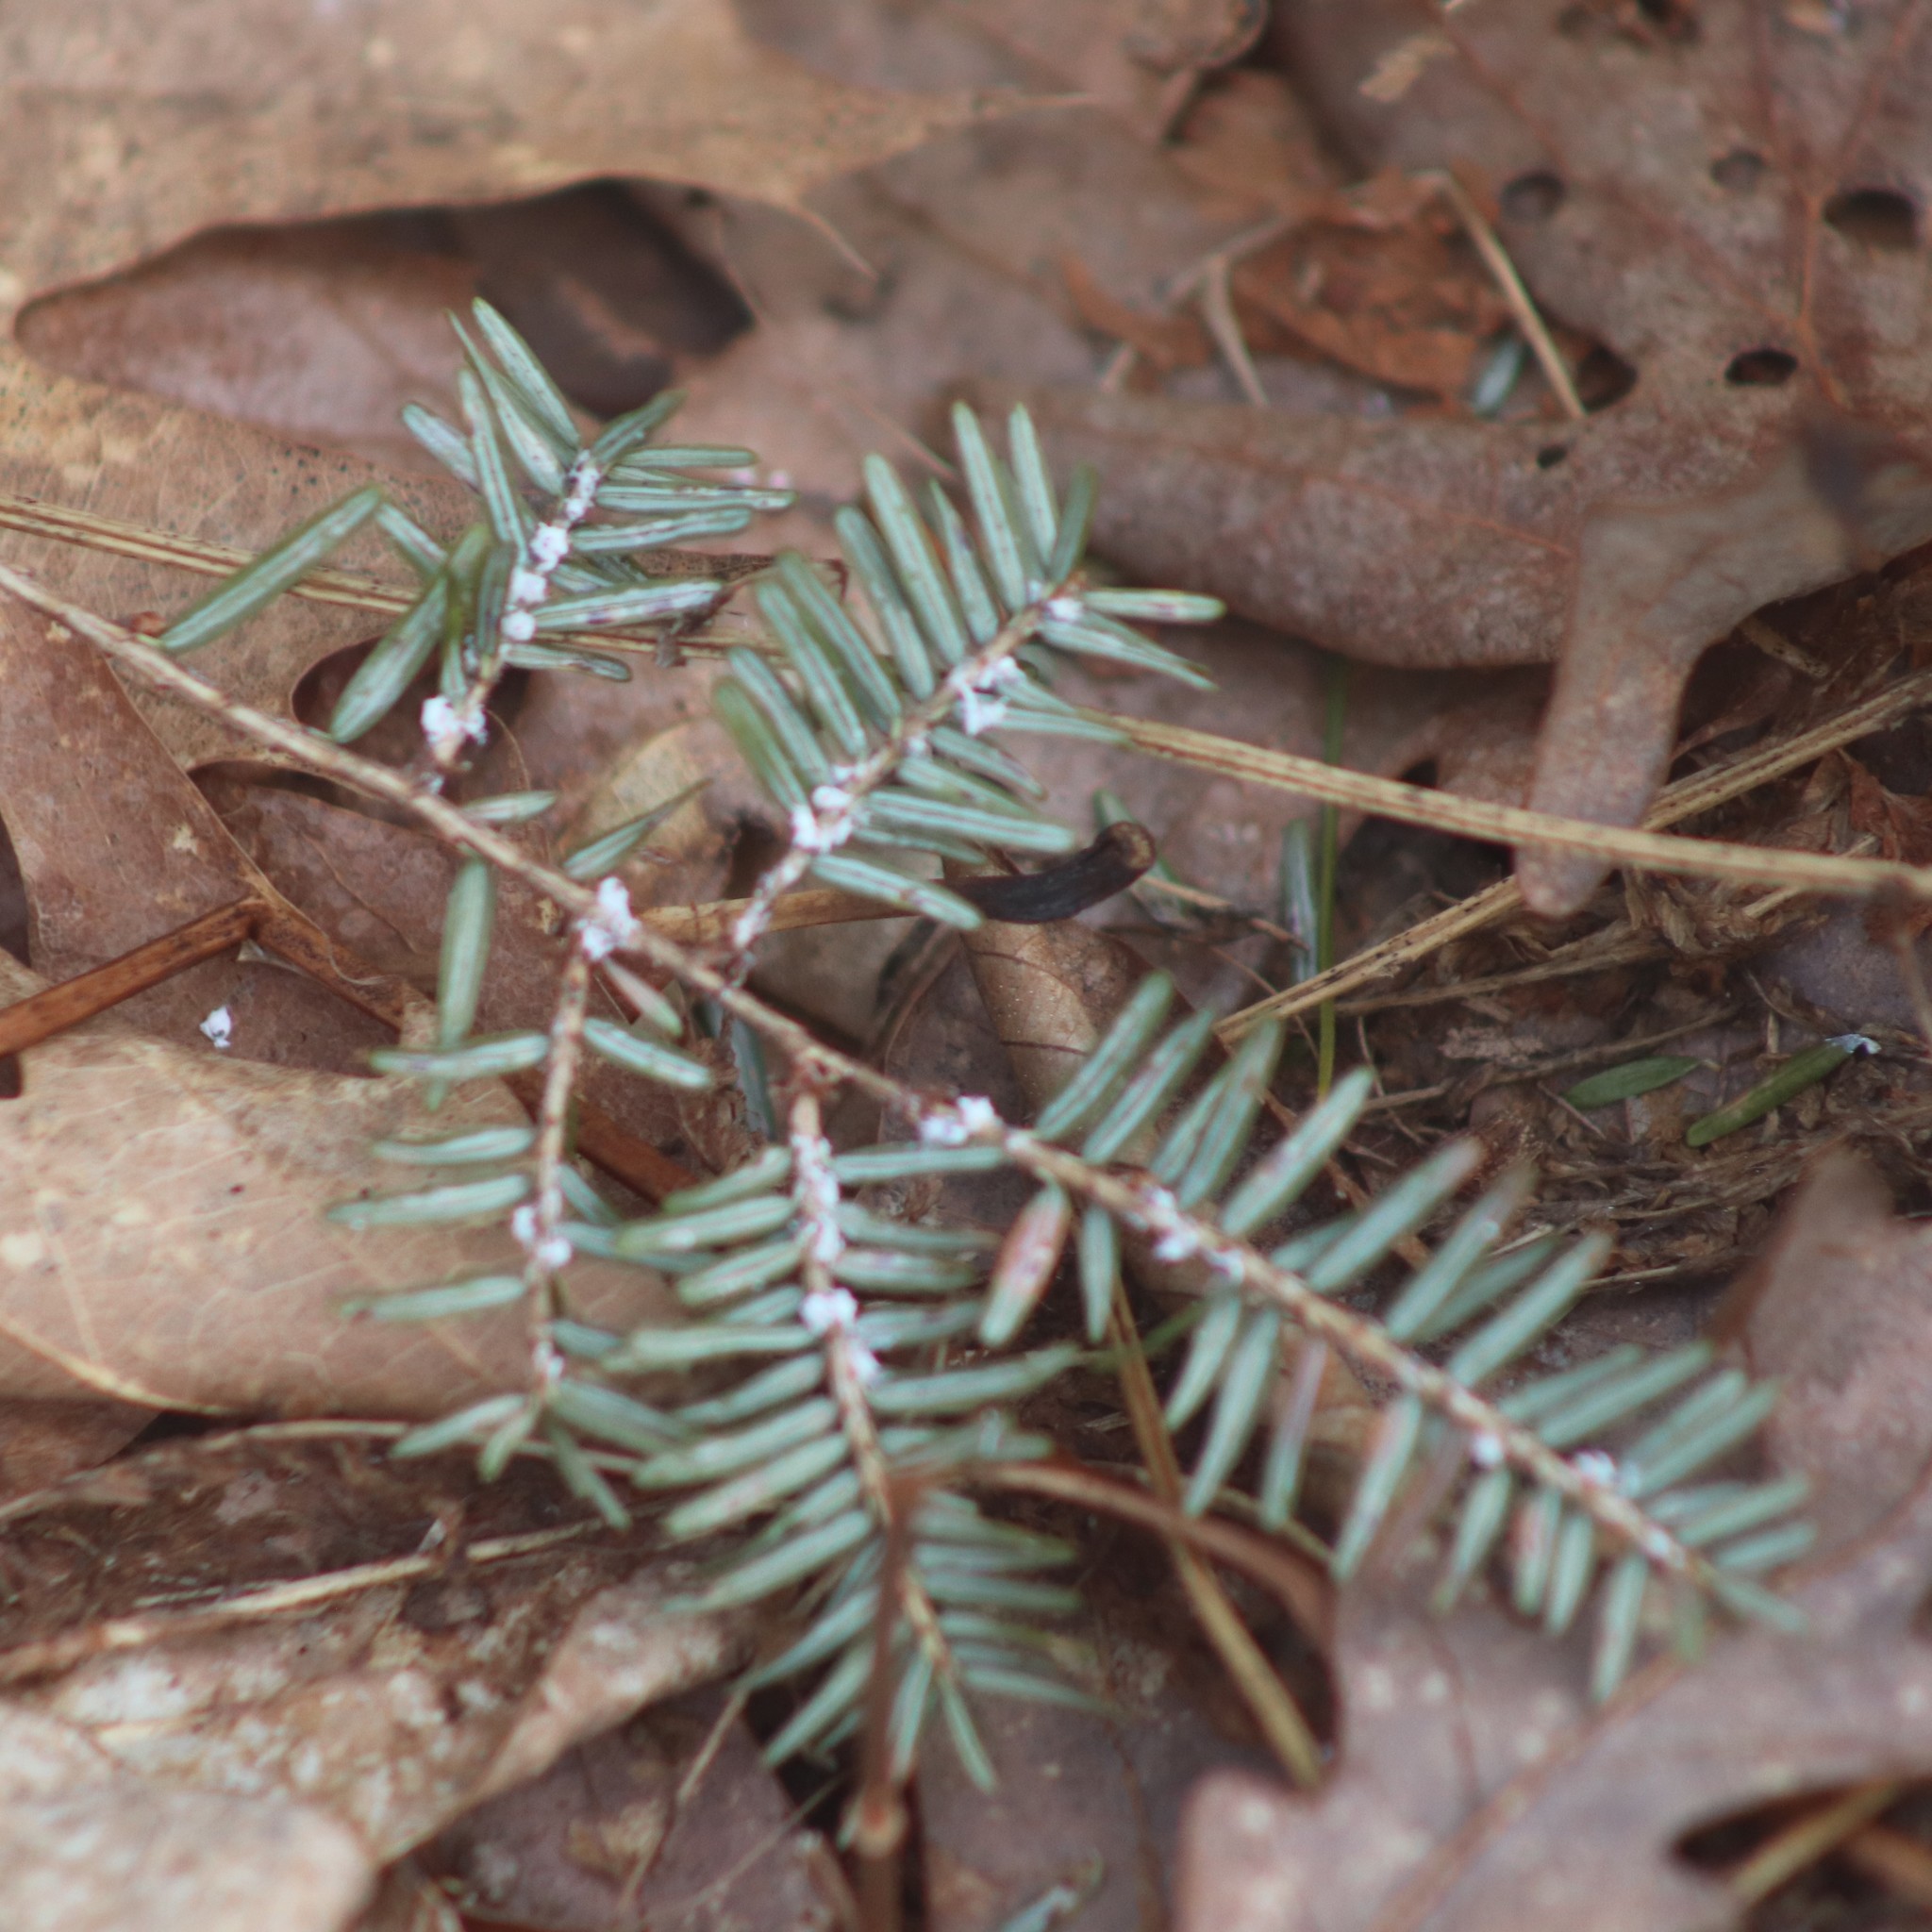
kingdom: Animalia
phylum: Arthropoda
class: Insecta
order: Hemiptera
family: Adelgidae
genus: Adelges
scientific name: Adelges tsugae
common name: Hemlock woolly adelgid
